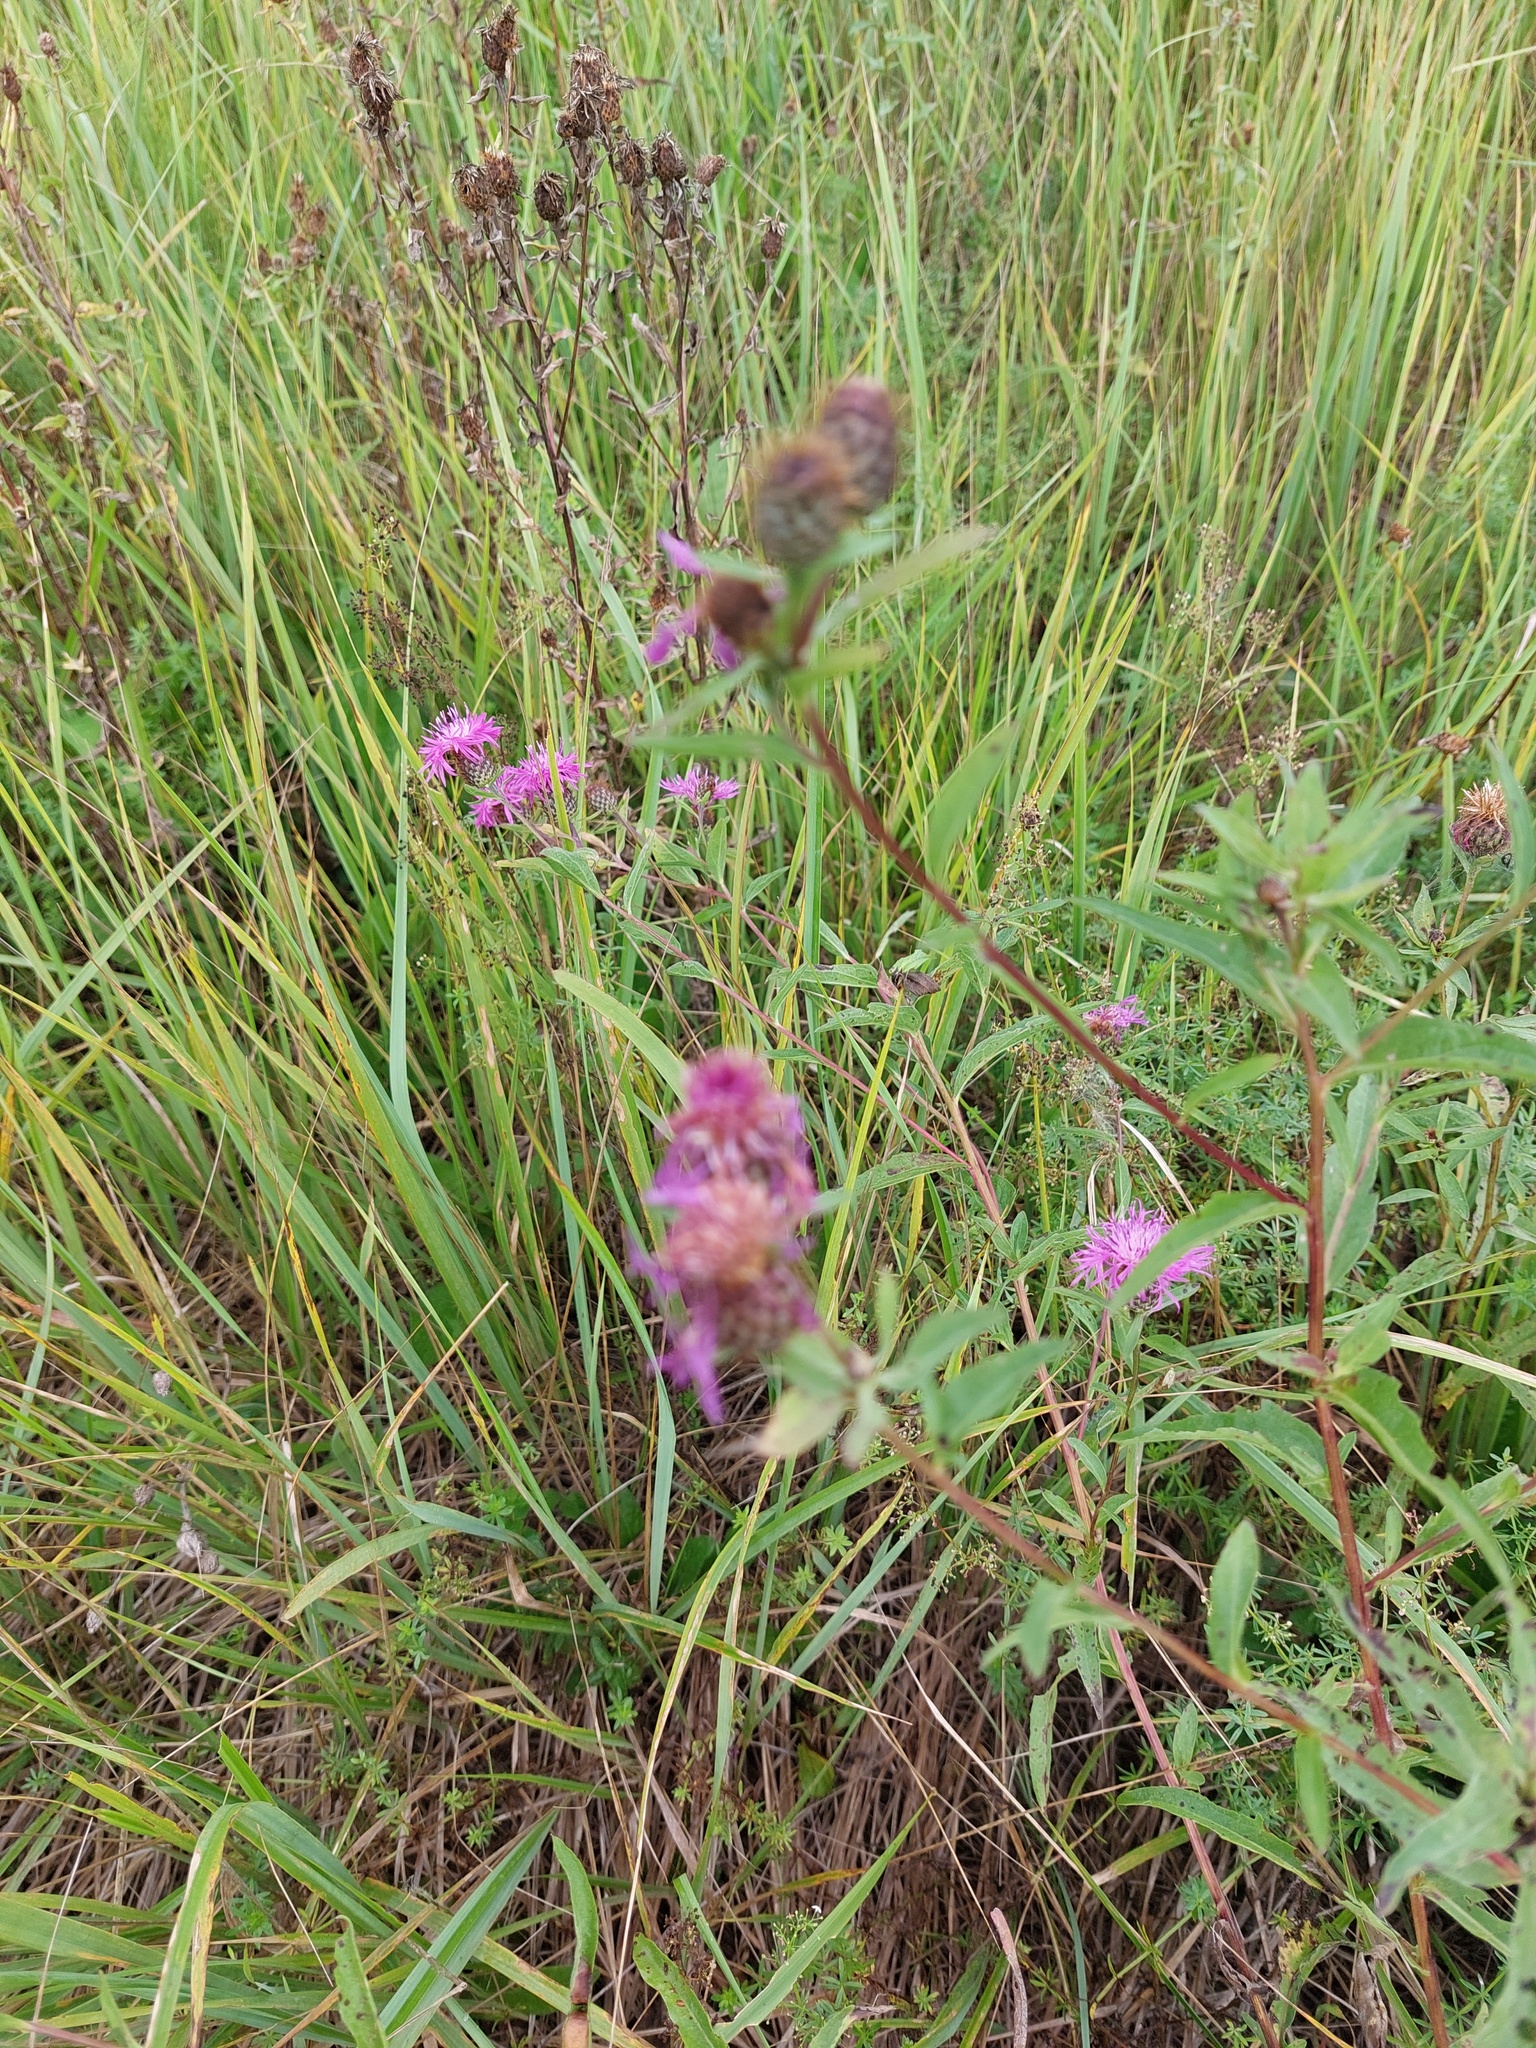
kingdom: Plantae
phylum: Tracheophyta
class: Magnoliopsida
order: Asterales
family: Asteraceae
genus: Centaurea
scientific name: Centaurea phrygia
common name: Wig knapweed
